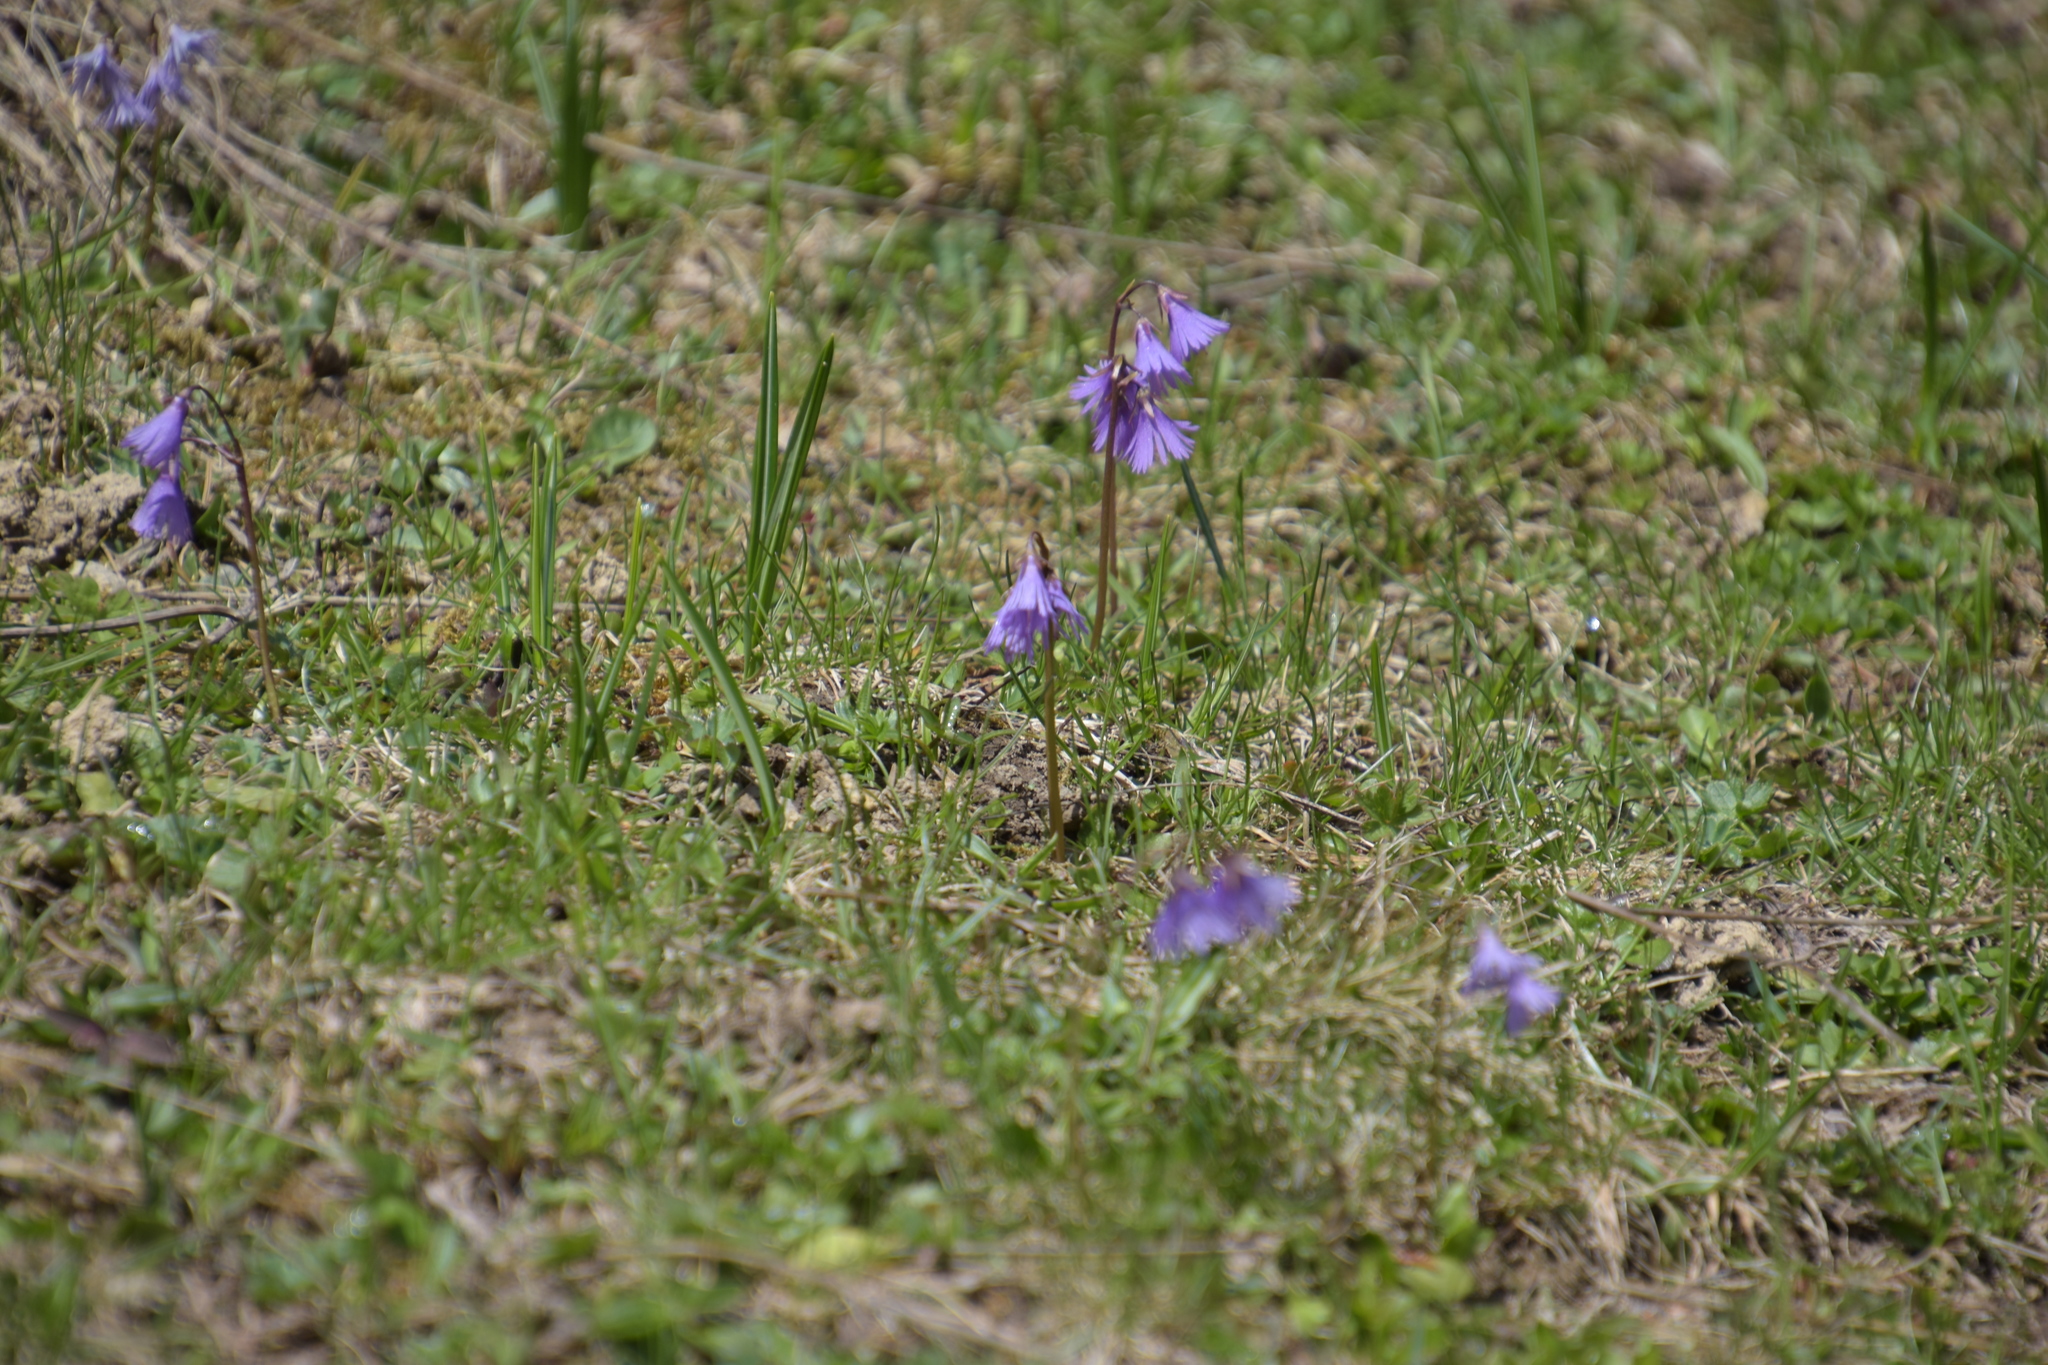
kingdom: Plantae
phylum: Tracheophyta
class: Magnoliopsida
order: Ericales
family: Primulaceae
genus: Soldanella
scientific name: Soldanella alpina
